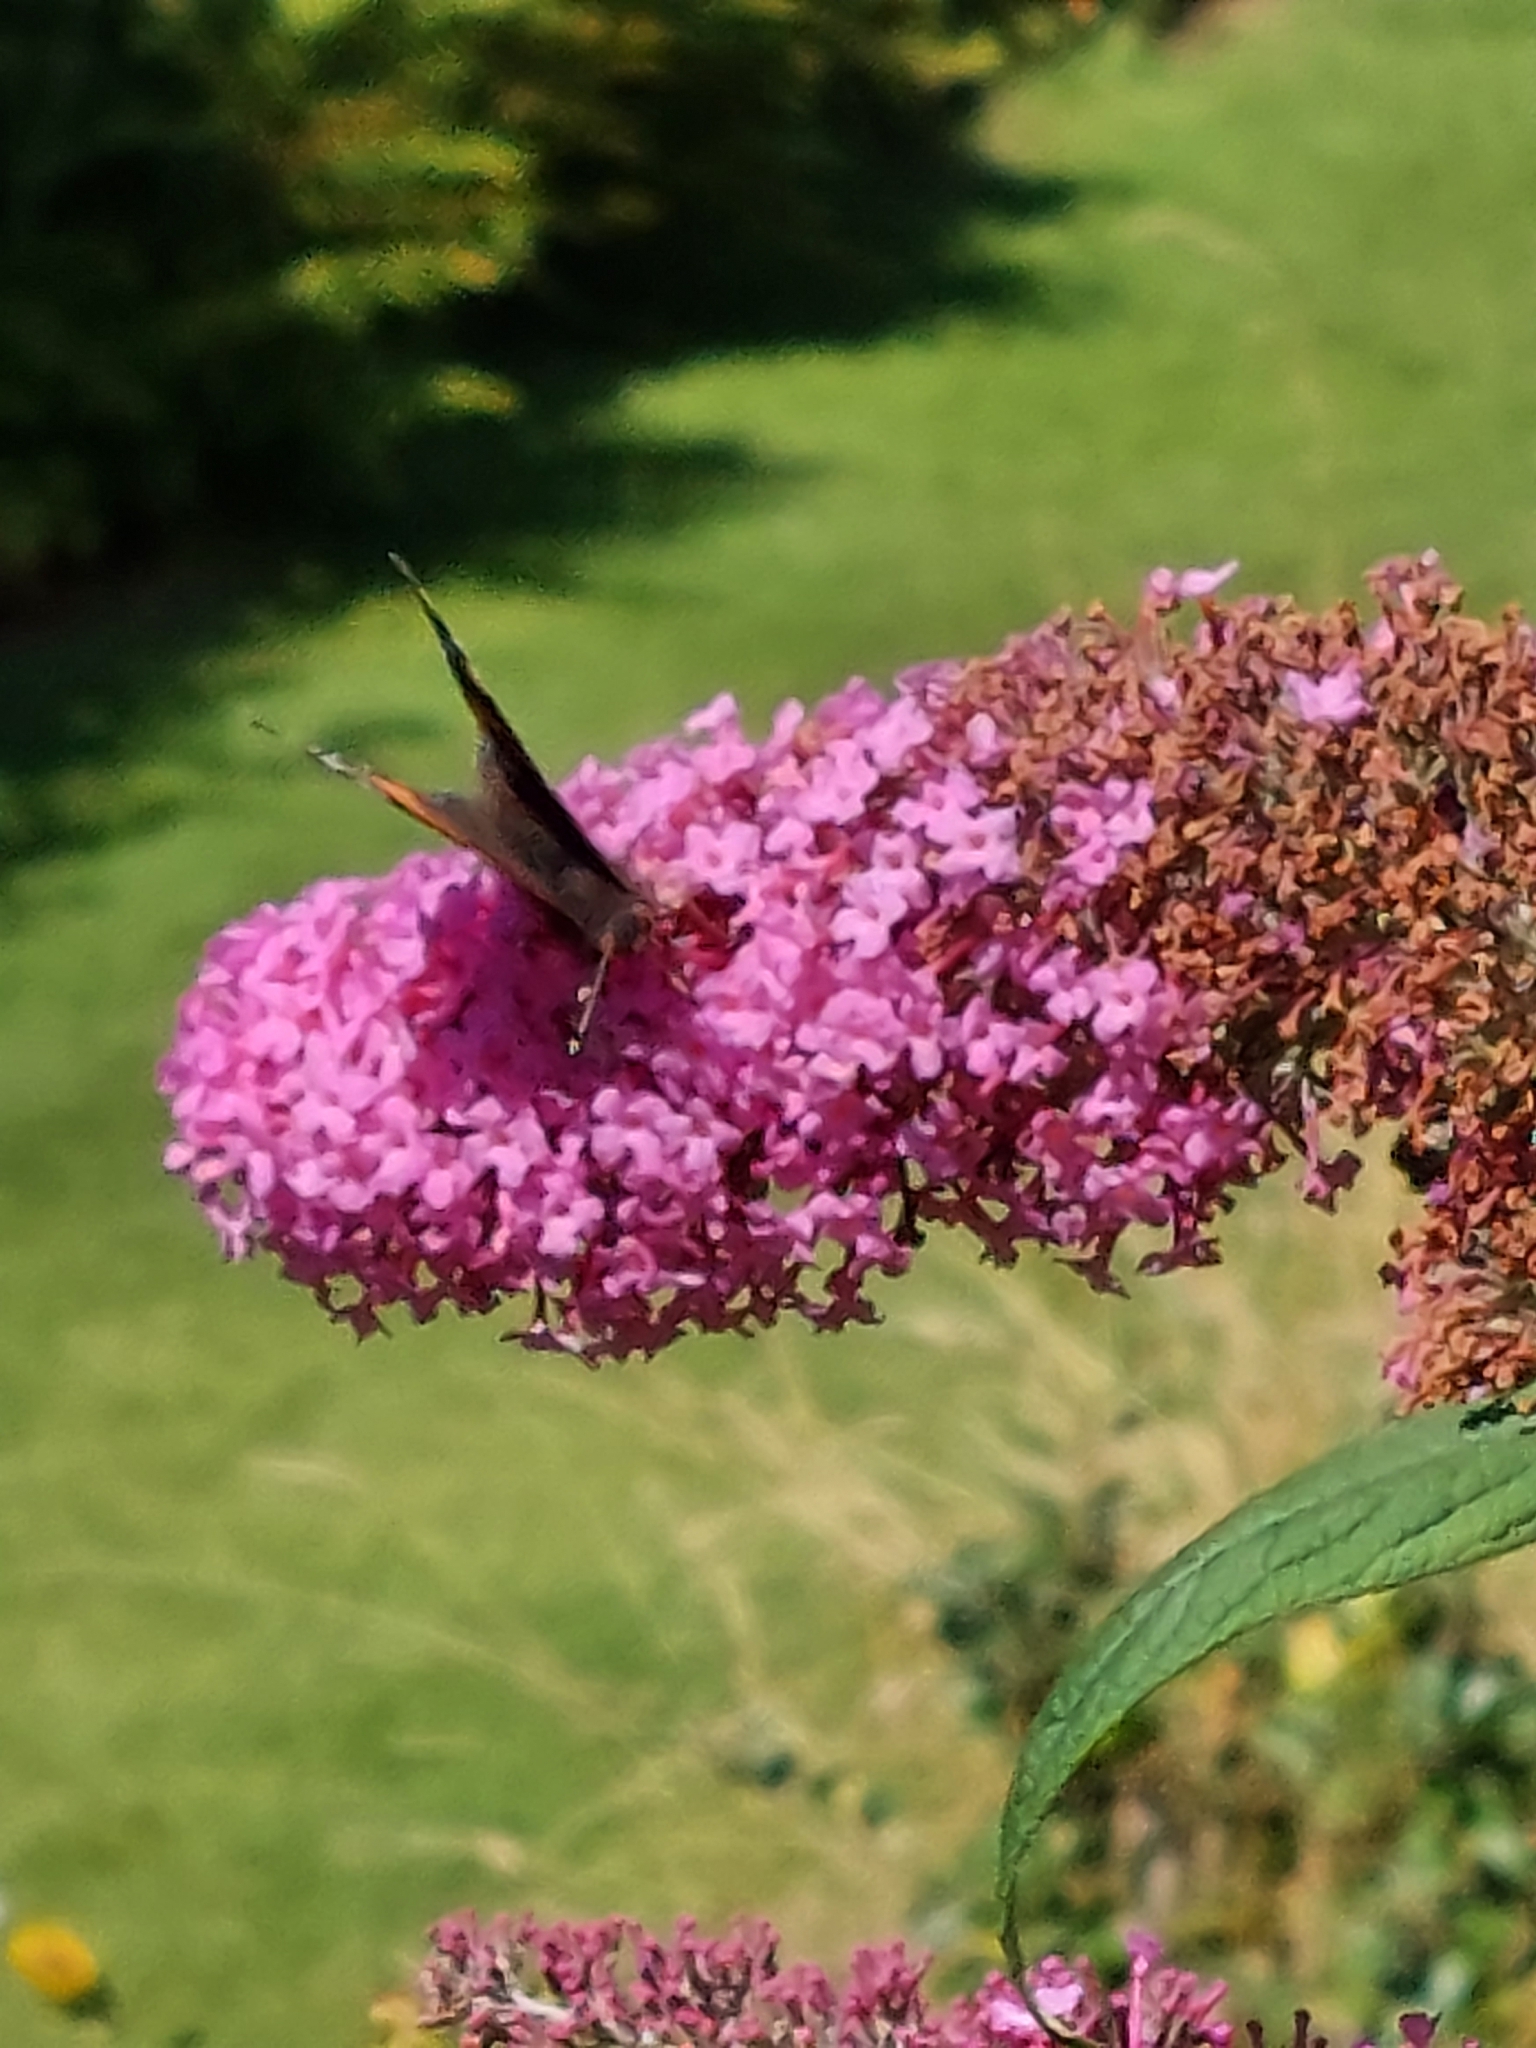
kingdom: Animalia
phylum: Arthropoda
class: Insecta
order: Lepidoptera
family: Nymphalidae
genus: Vanessa
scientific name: Vanessa atalanta
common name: Red admiral
